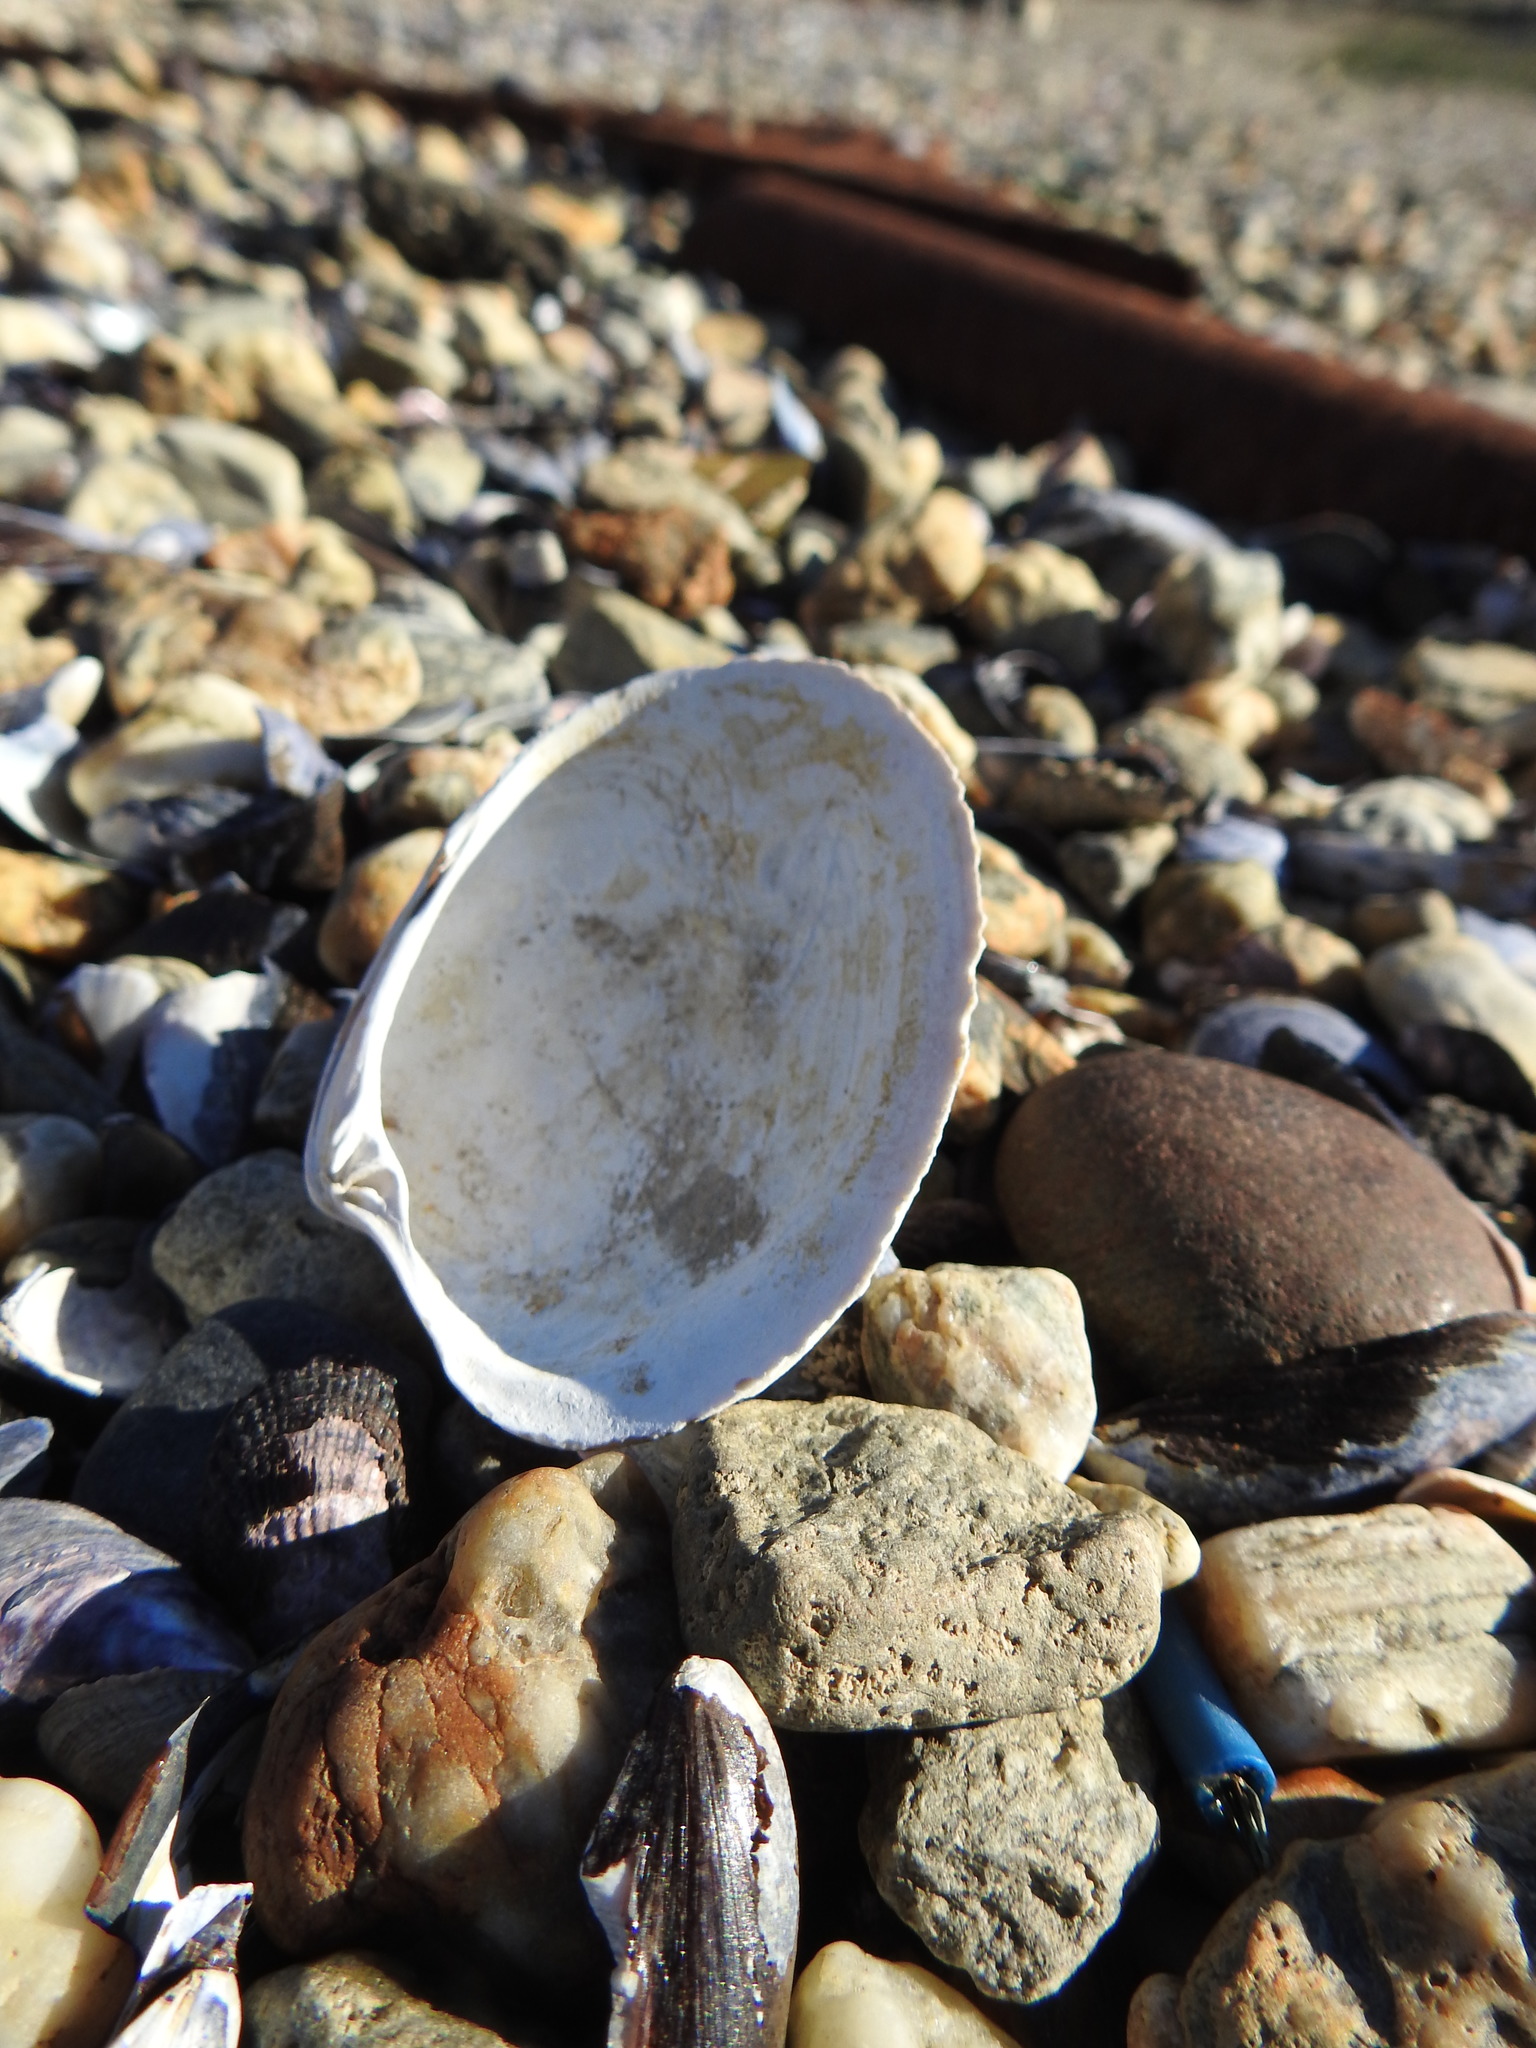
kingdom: Animalia
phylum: Mollusca
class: Bivalvia
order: Venerida
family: Veneridae
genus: Retrotapes
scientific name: Retrotapes exalbidus
